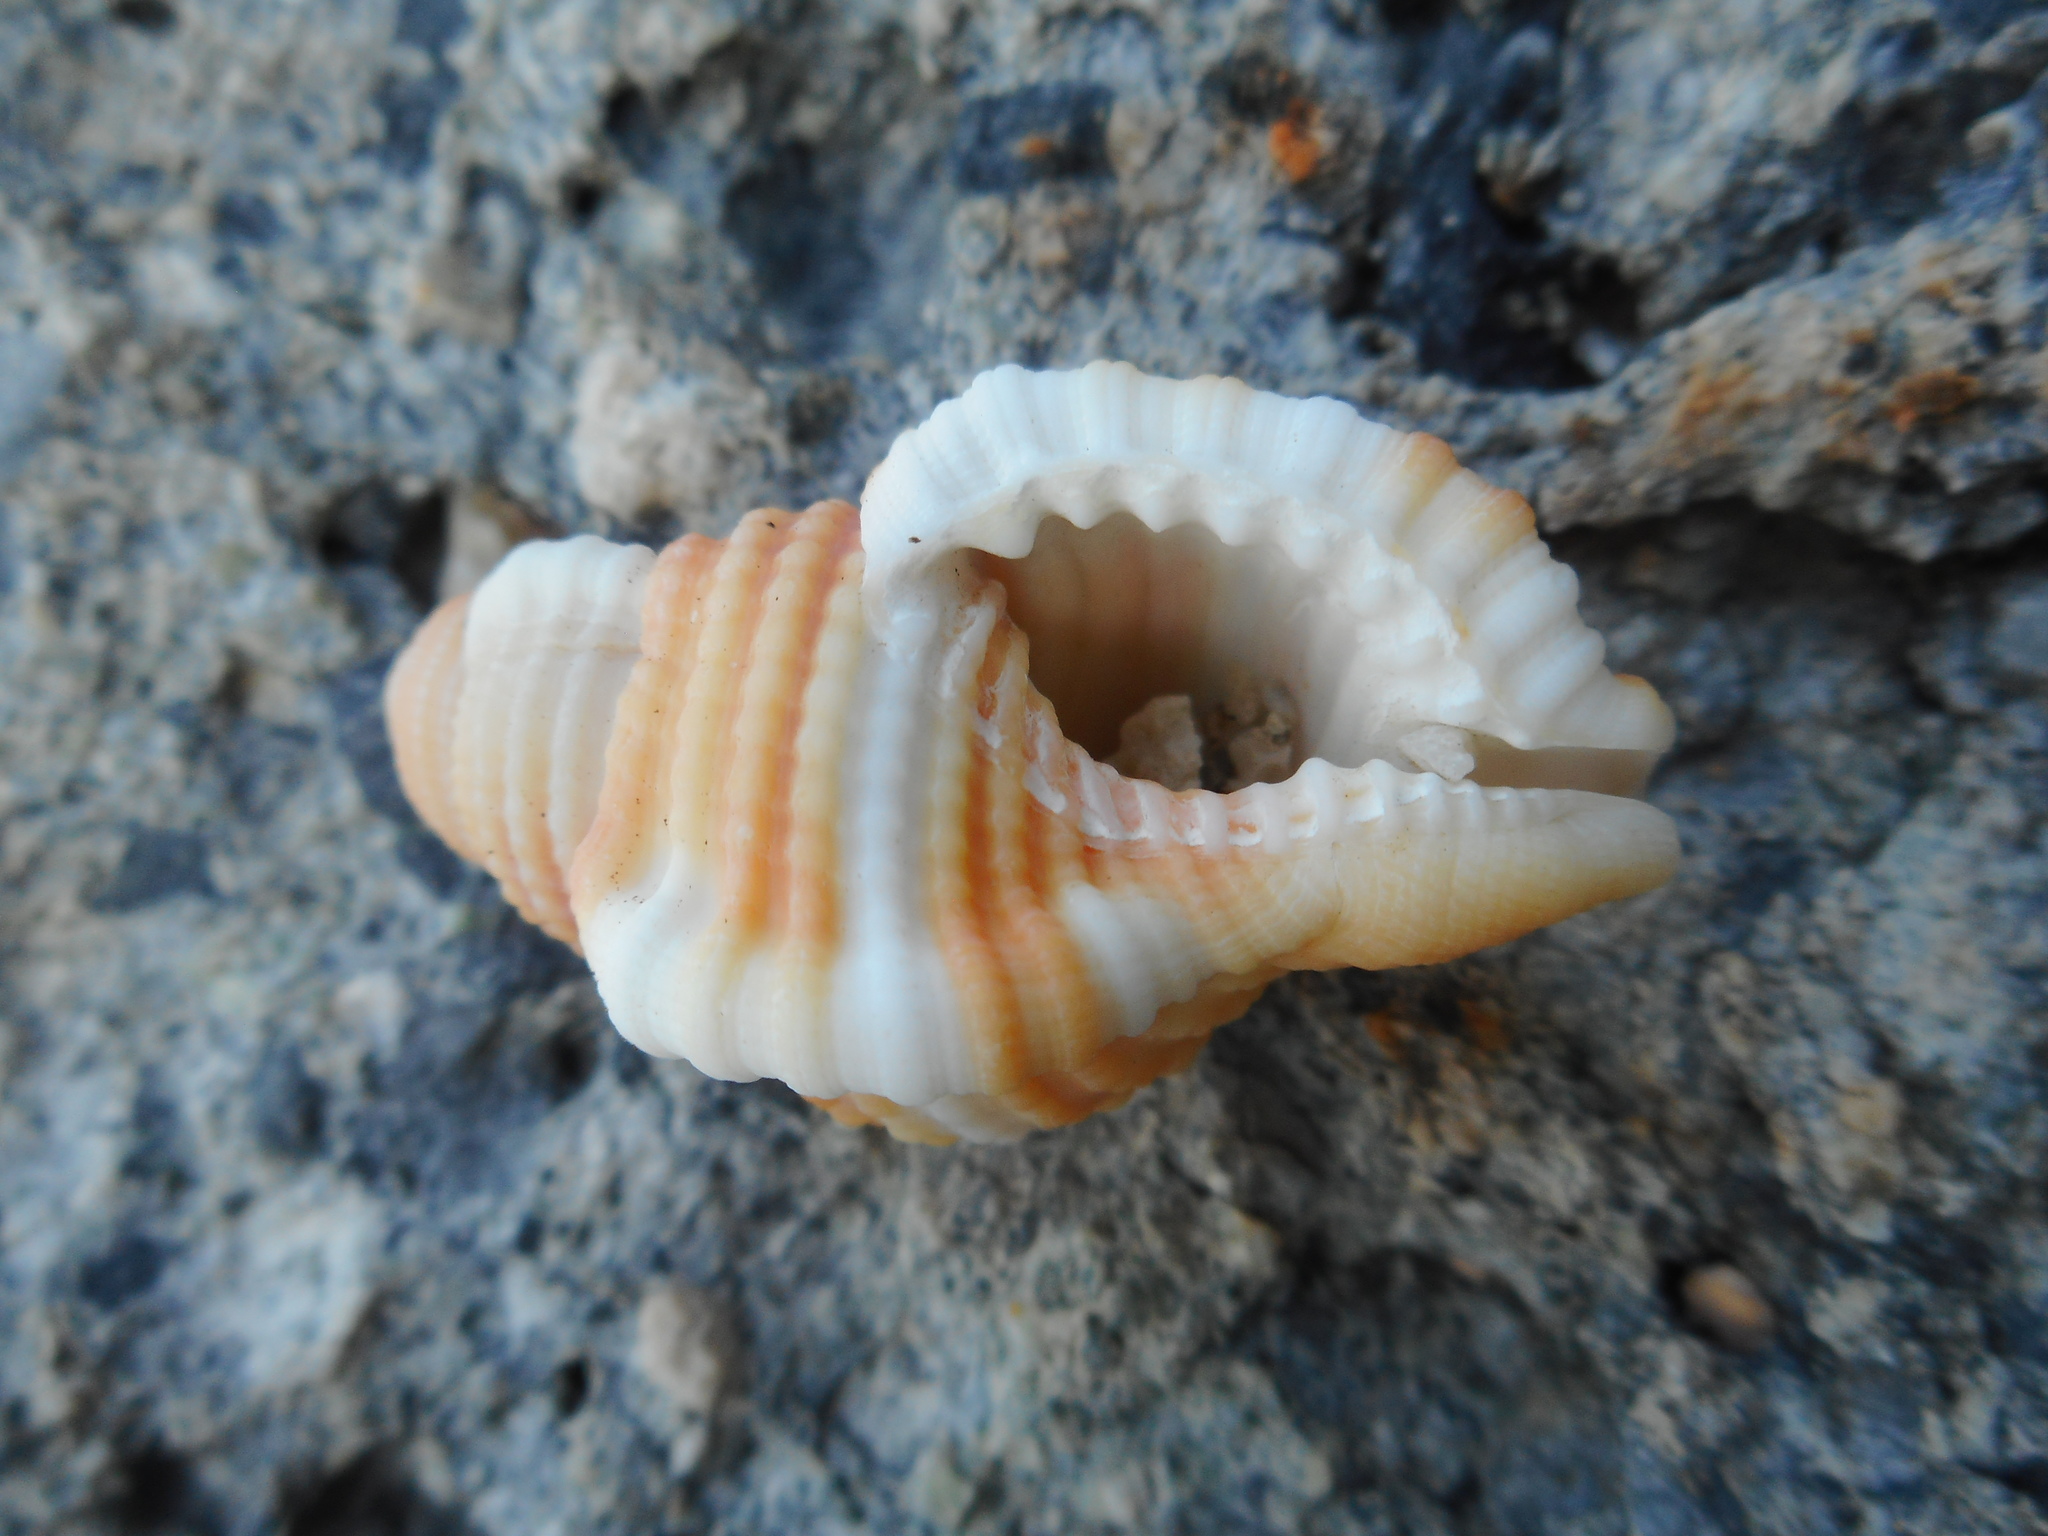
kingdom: Animalia
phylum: Mollusca
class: Gastropoda
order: Littorinimorpha
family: Cymatiidae
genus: Septa
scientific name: Septa rubecula
